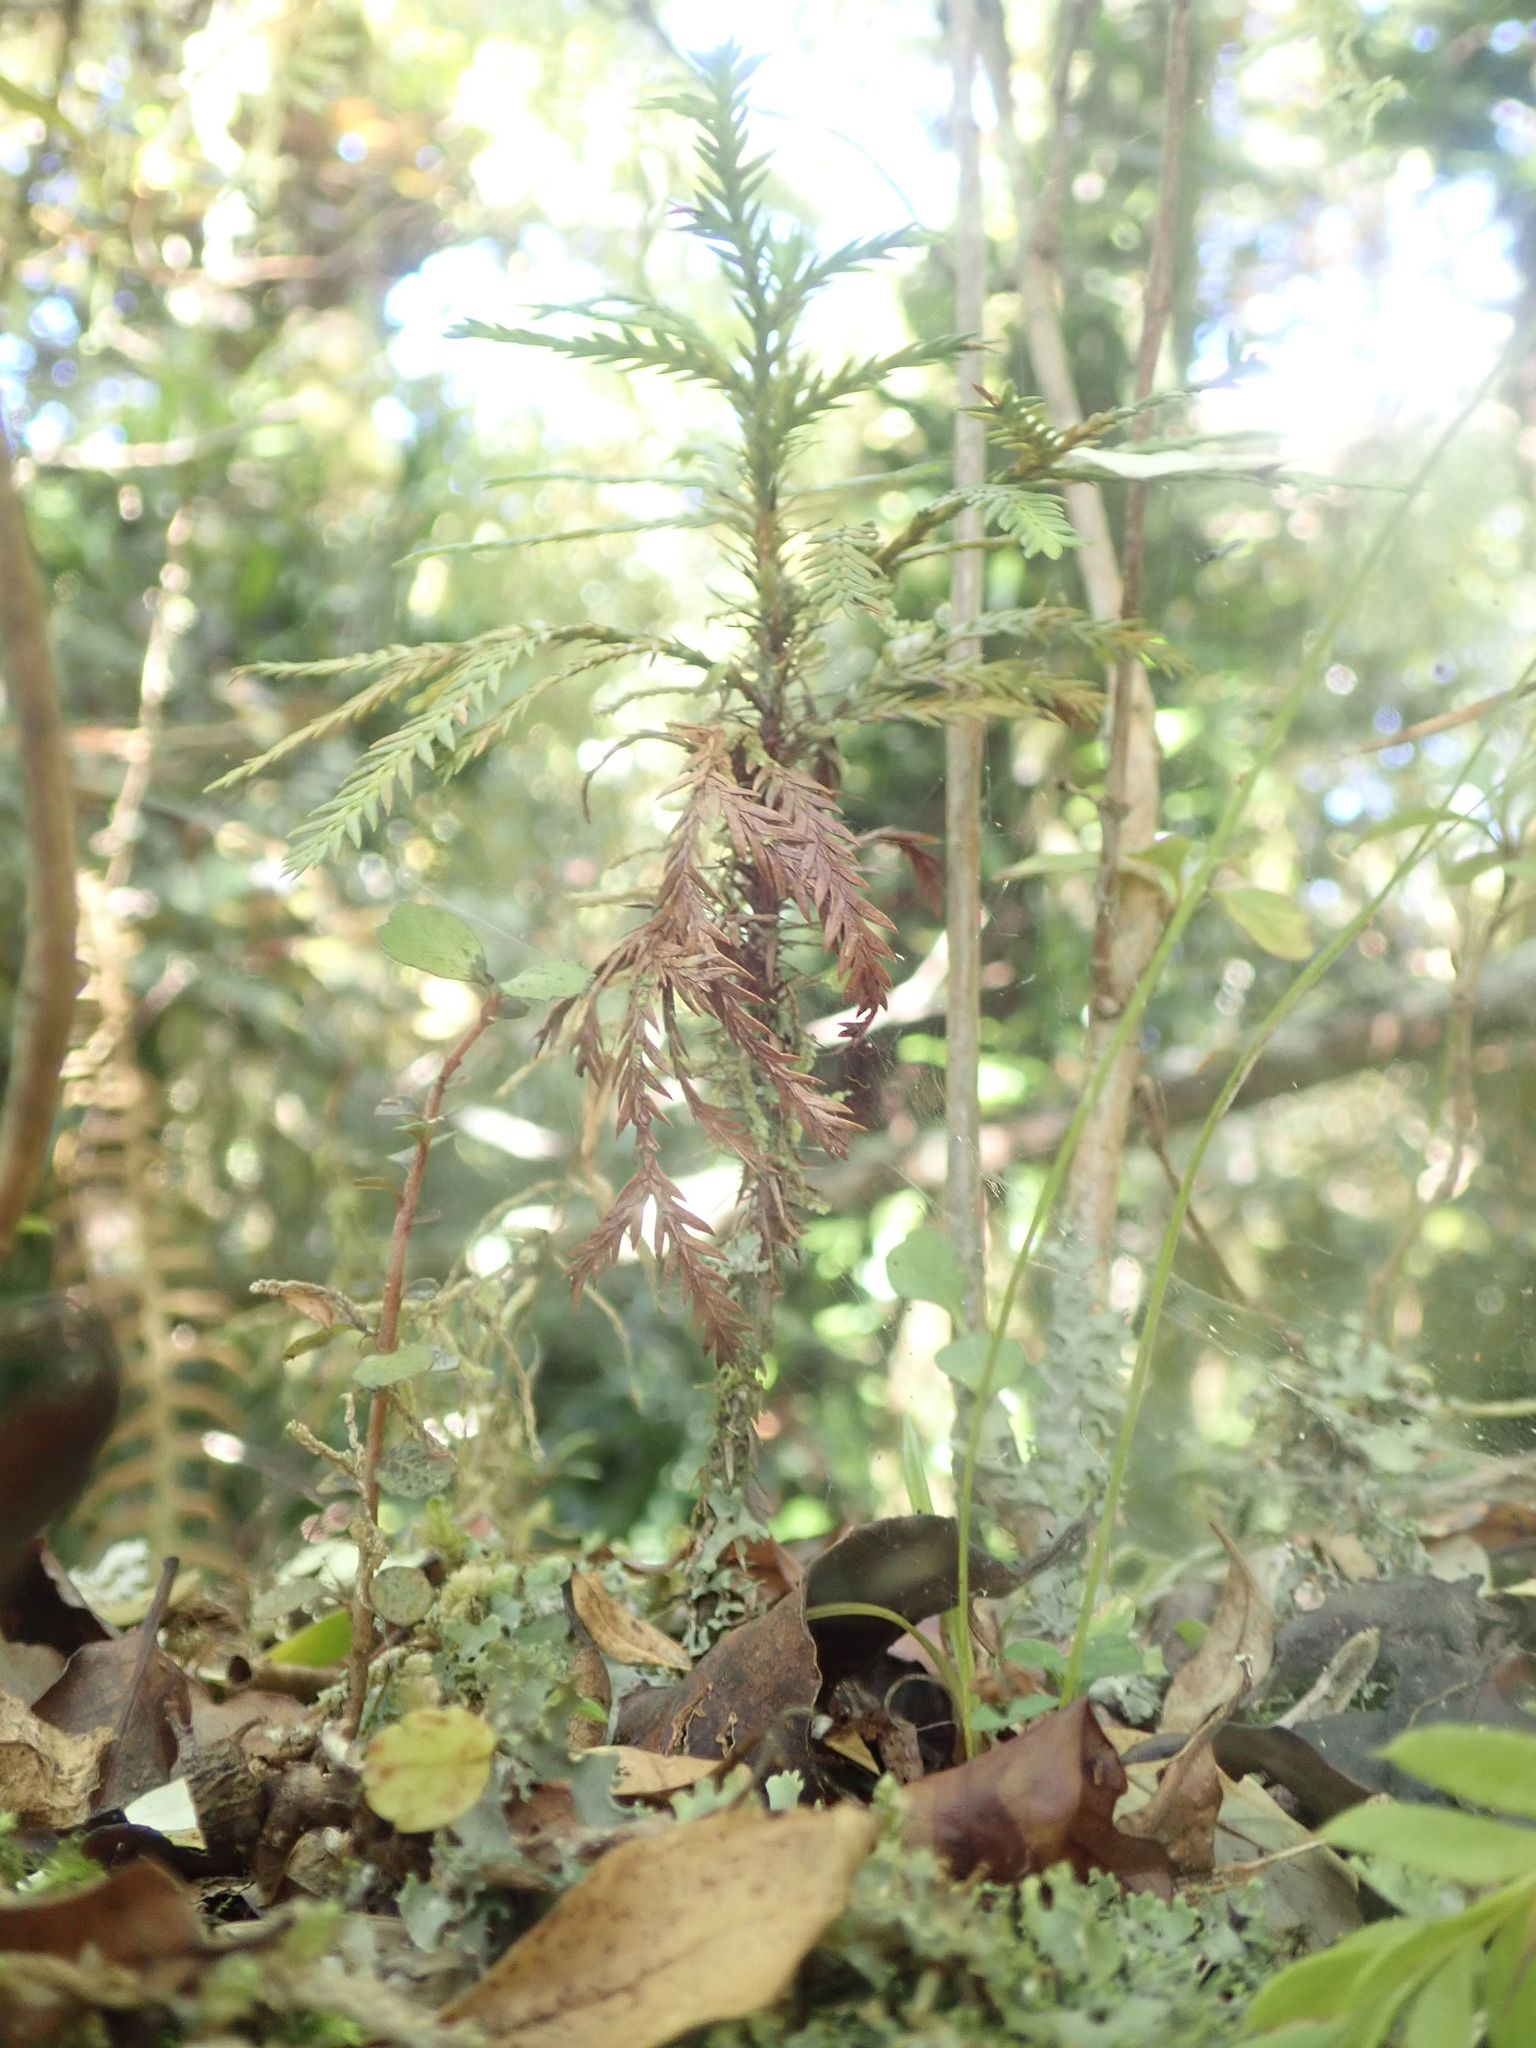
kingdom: Plantae
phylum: Tracheophyta
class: Pinopsida
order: Pinales
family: Cupressaceae
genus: Libocedrus
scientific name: Libocedrus bidwillii
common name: Cedar
